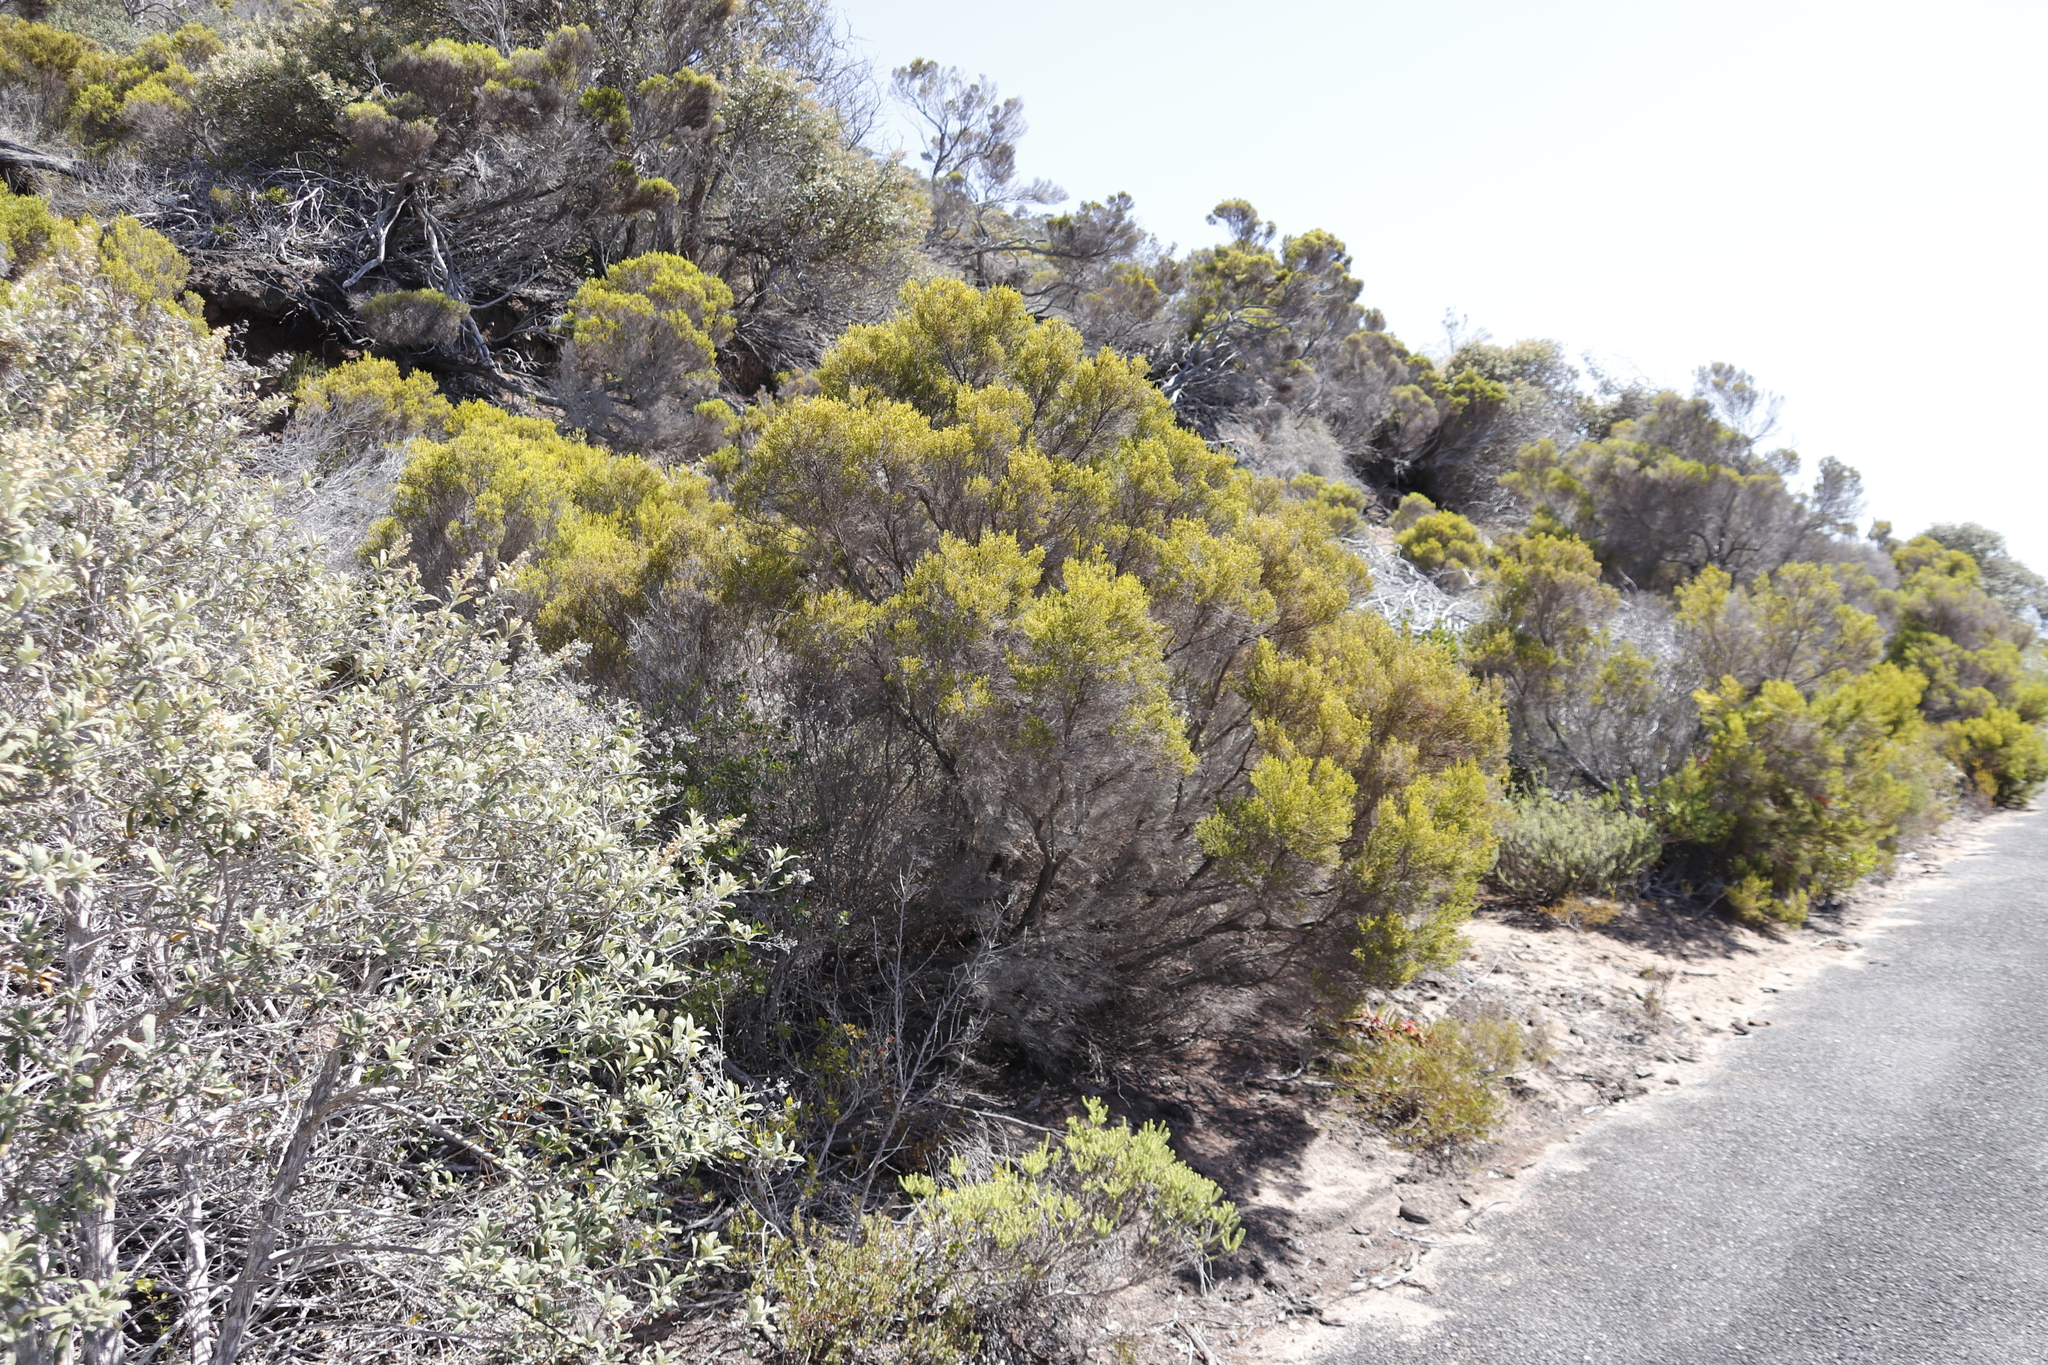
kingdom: Plantae
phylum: Tracheophyta
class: Magnoliopsida
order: Ericales
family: Ericaceae
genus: Erica
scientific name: Erica tristis
